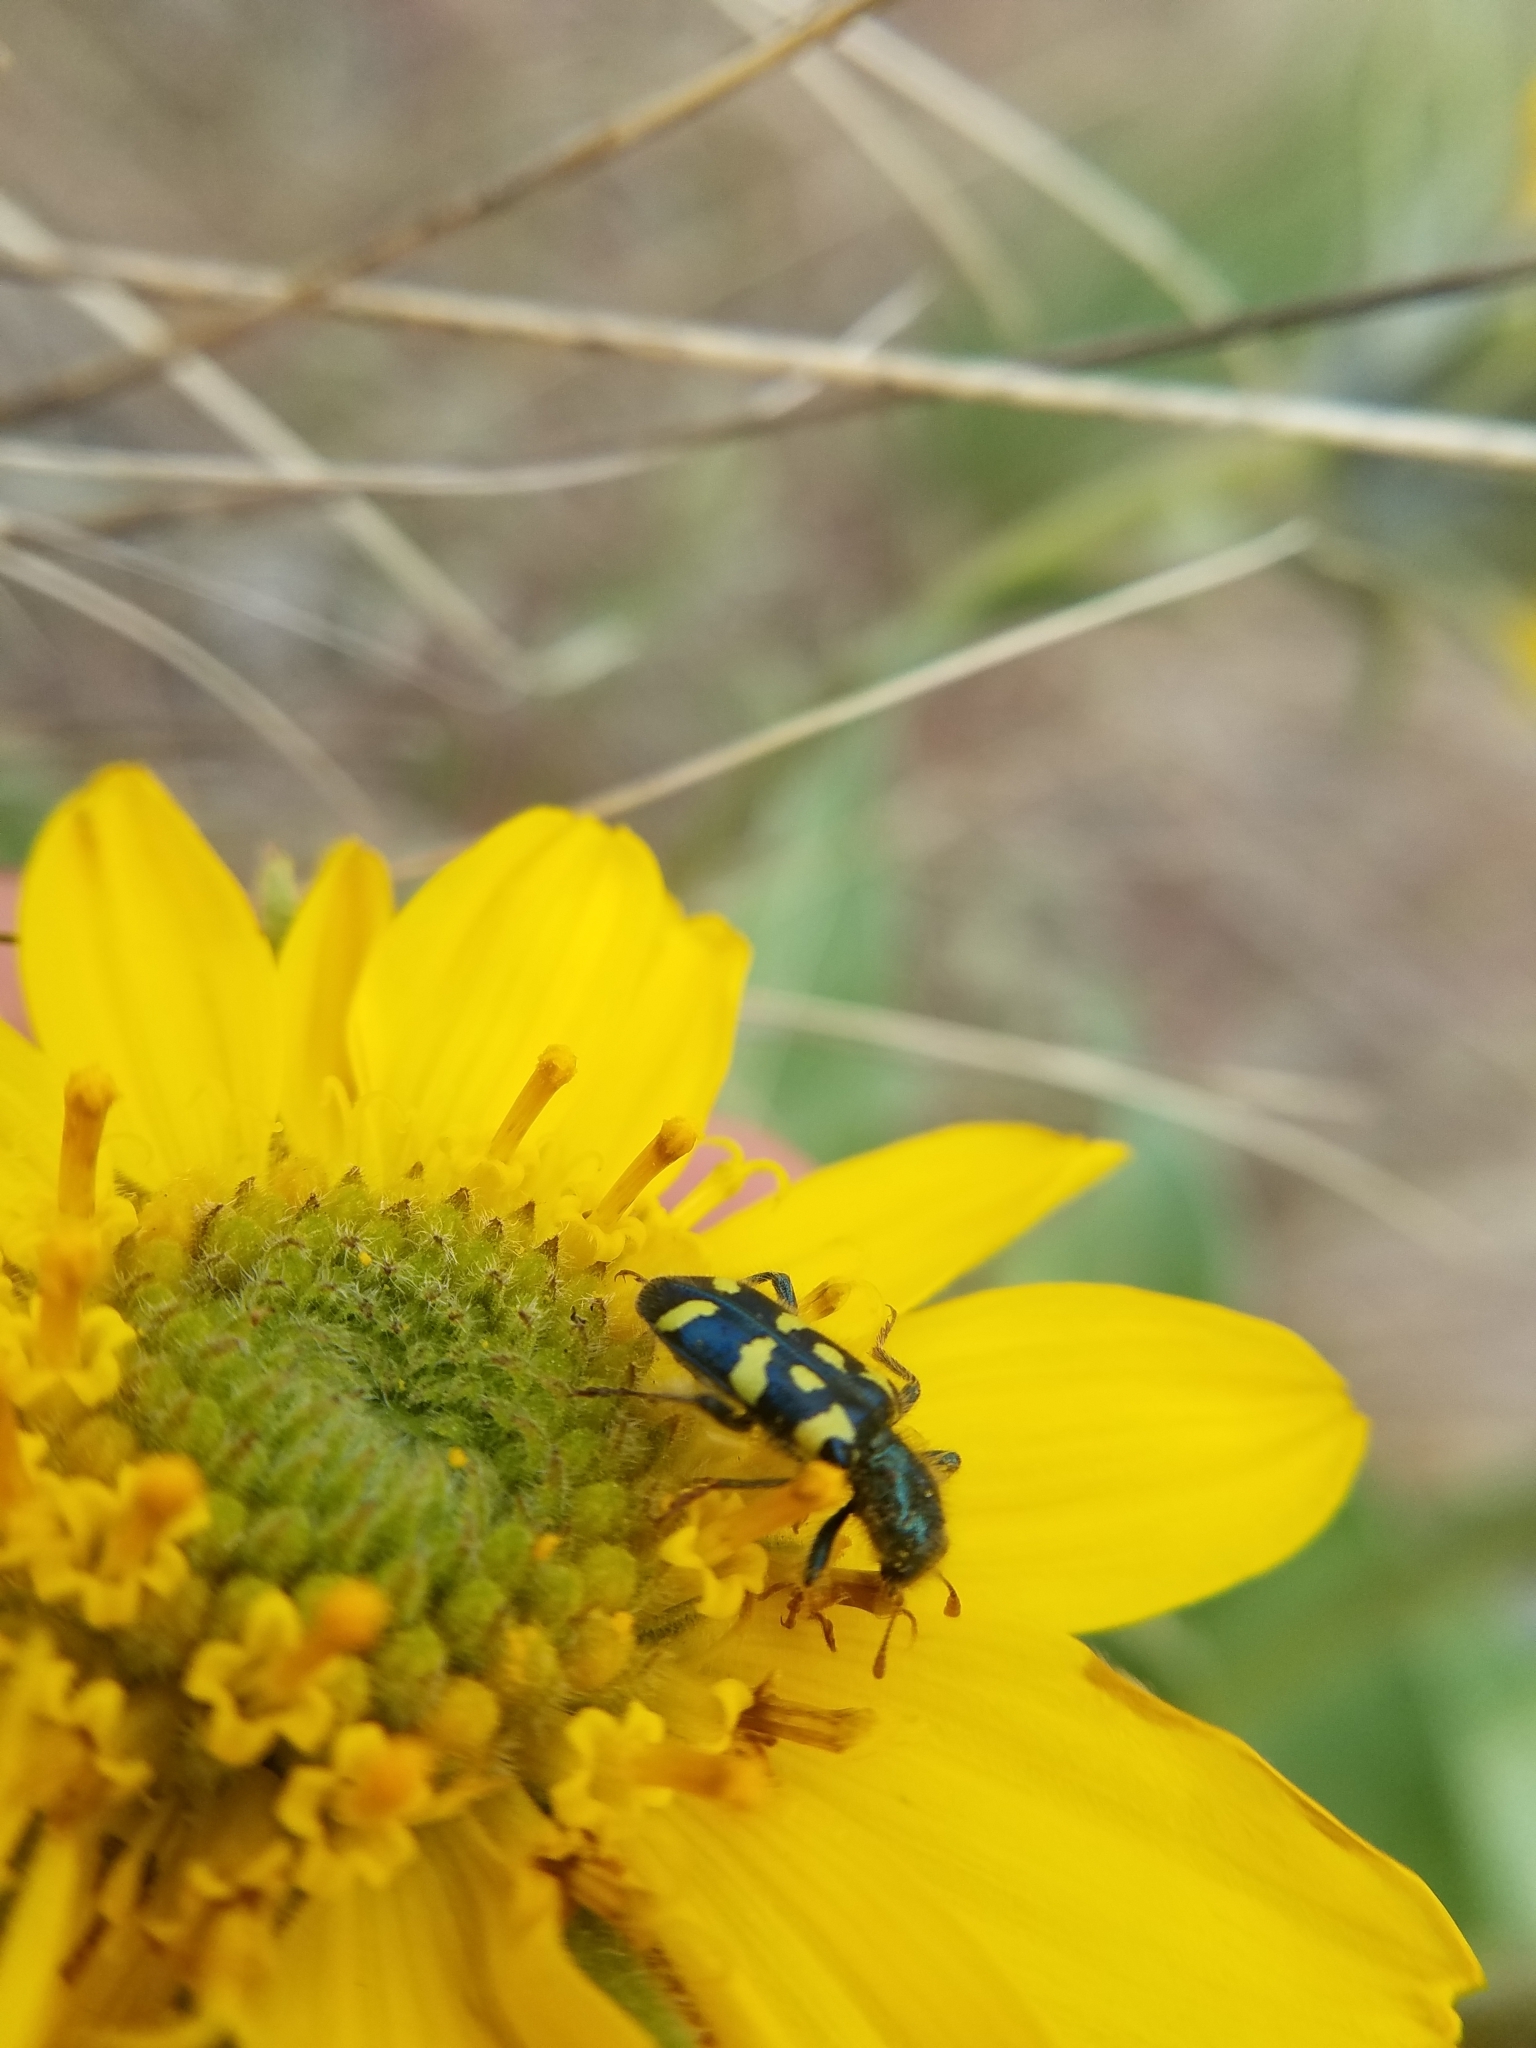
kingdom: Animalia
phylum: Arthropoda
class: Insecta
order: Coleoptera
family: Cleridae
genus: Trichodes
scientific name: Trichodes ornatus
